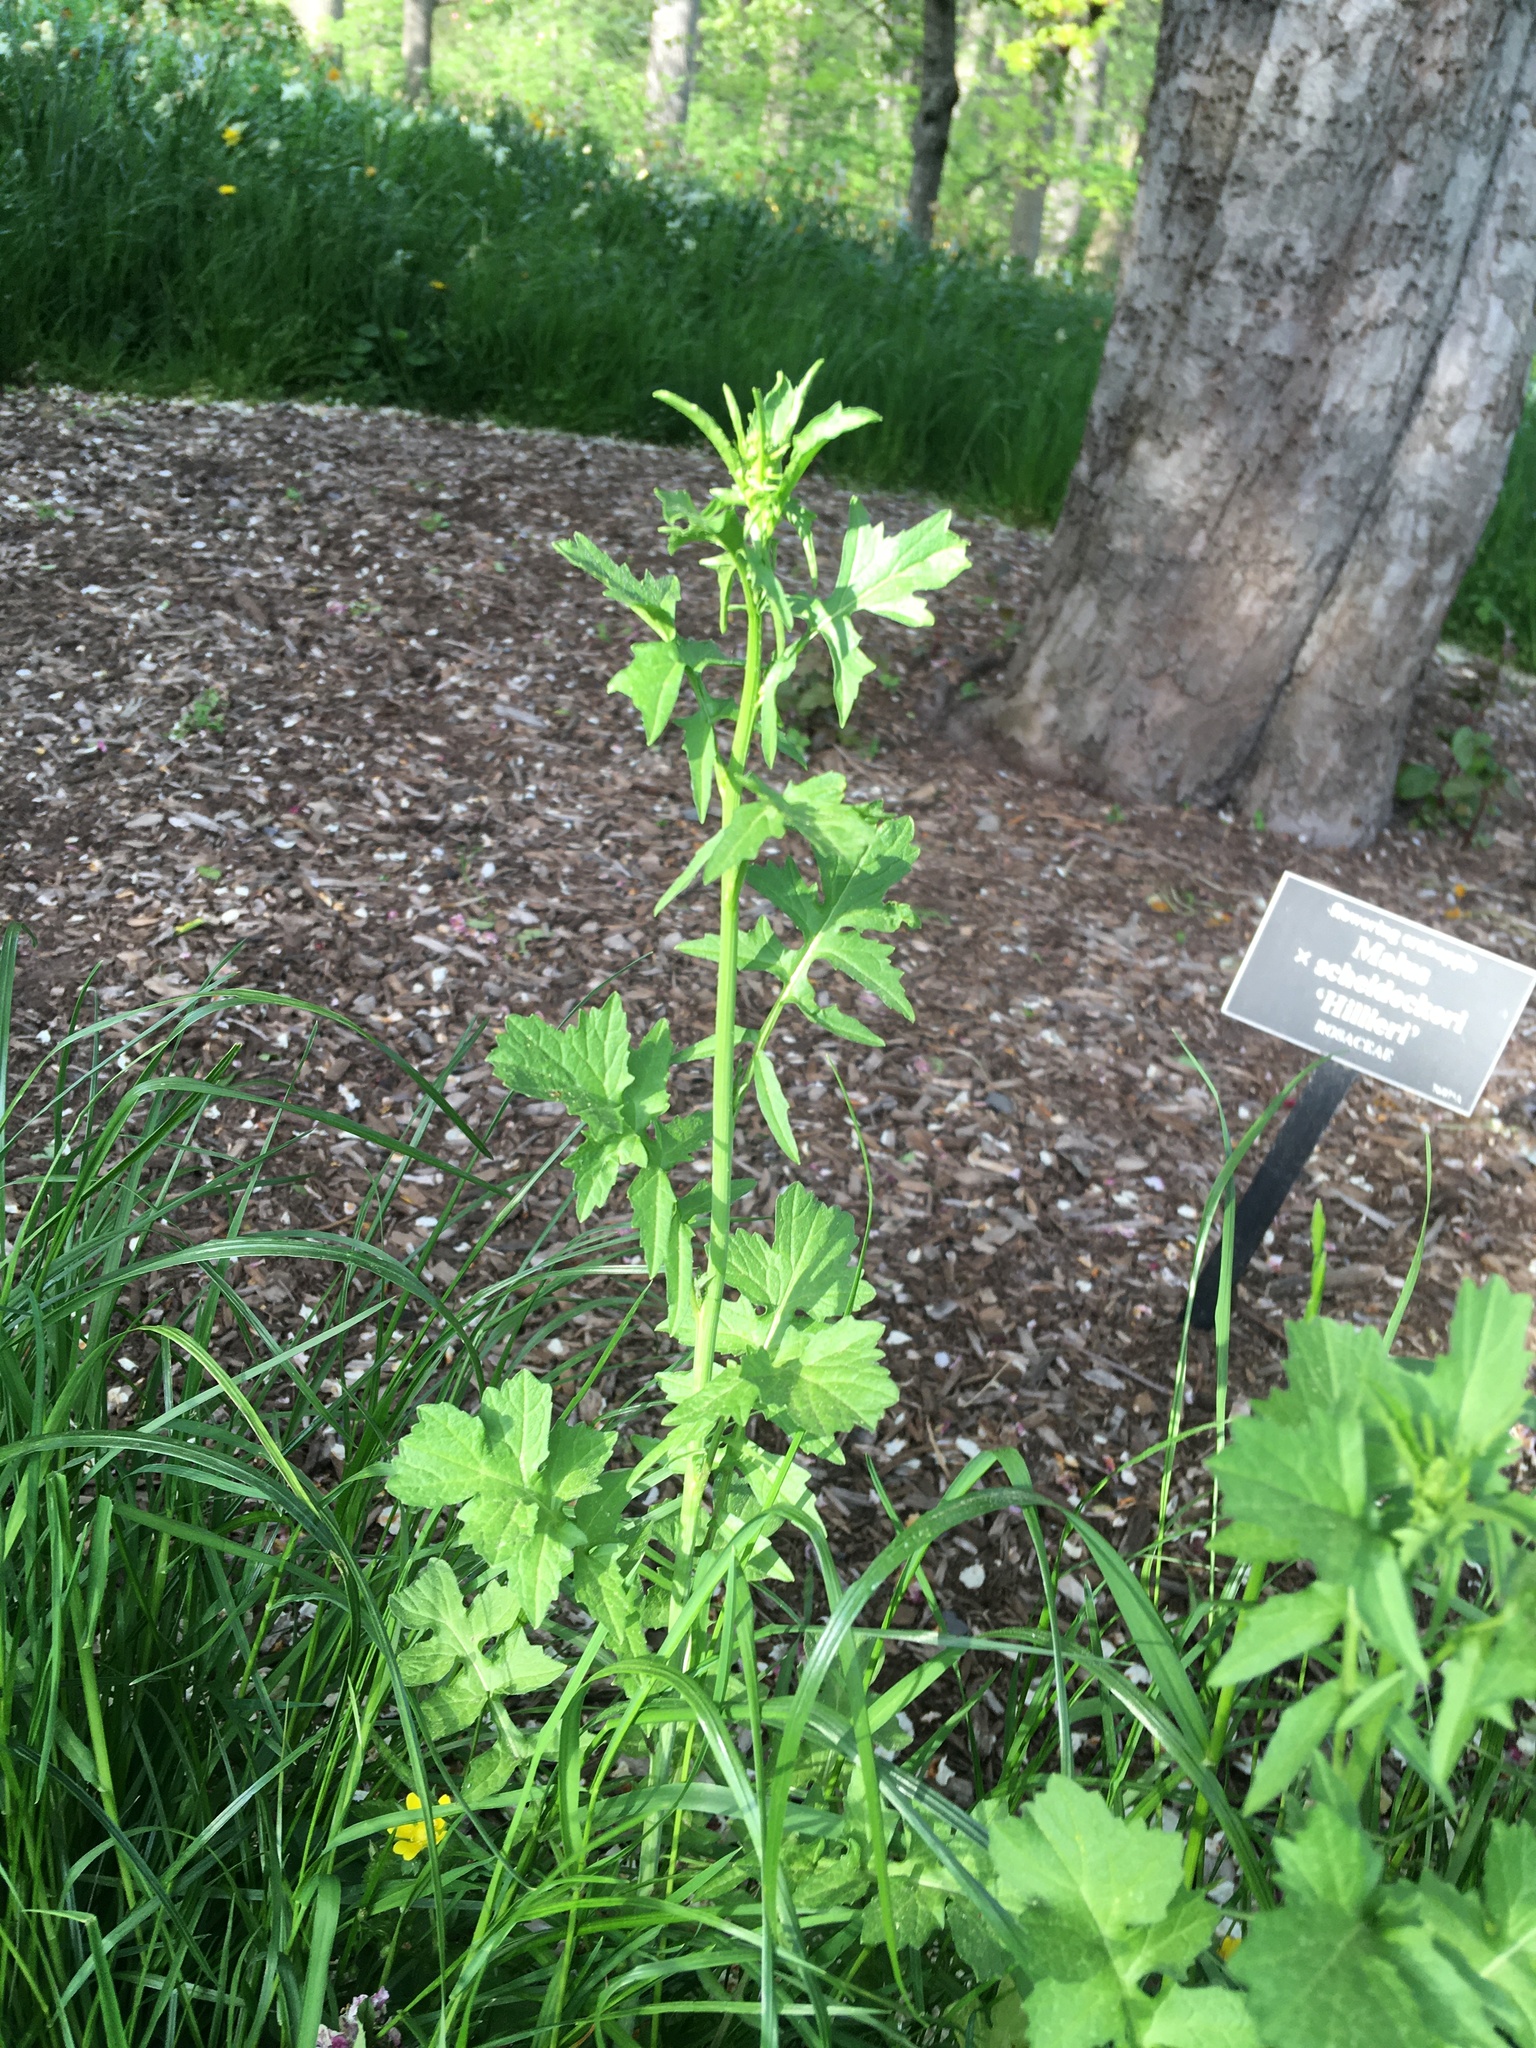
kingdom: Plantae
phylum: Tracheophyta
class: Magnoliopsida
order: Brassicales
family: Brassicaceae
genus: Sisymbrium
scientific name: Sisymbrium officinale
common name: Hedge mustard
